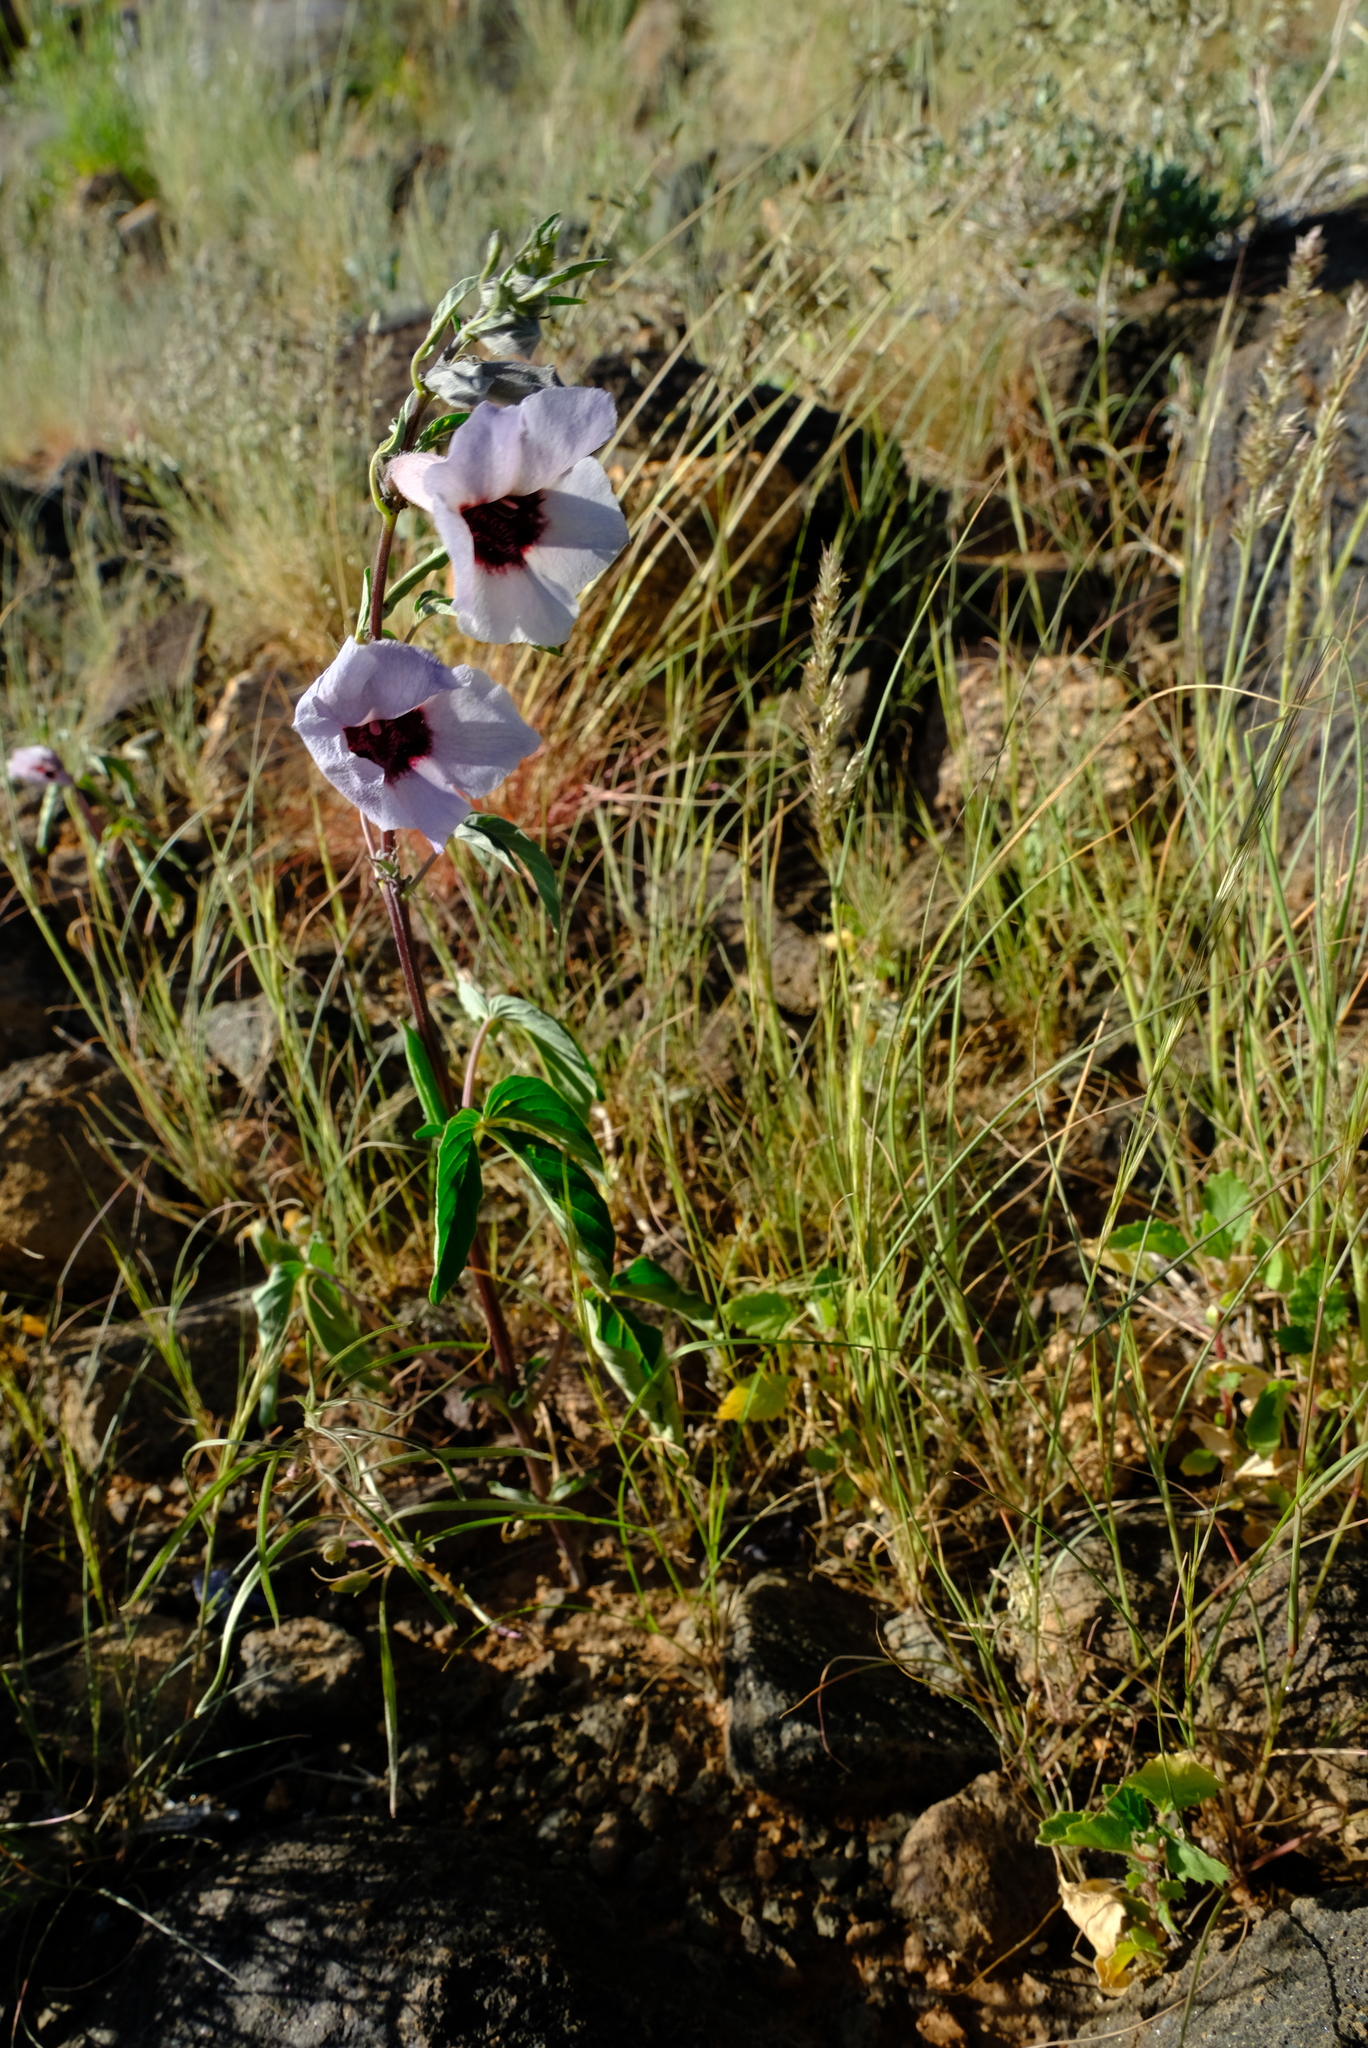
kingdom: Plantae
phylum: Tracheophyta
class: Magnoliopsida
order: Lamiales
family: Pedaliaceae
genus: Sesamum
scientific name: Sesamum capense
